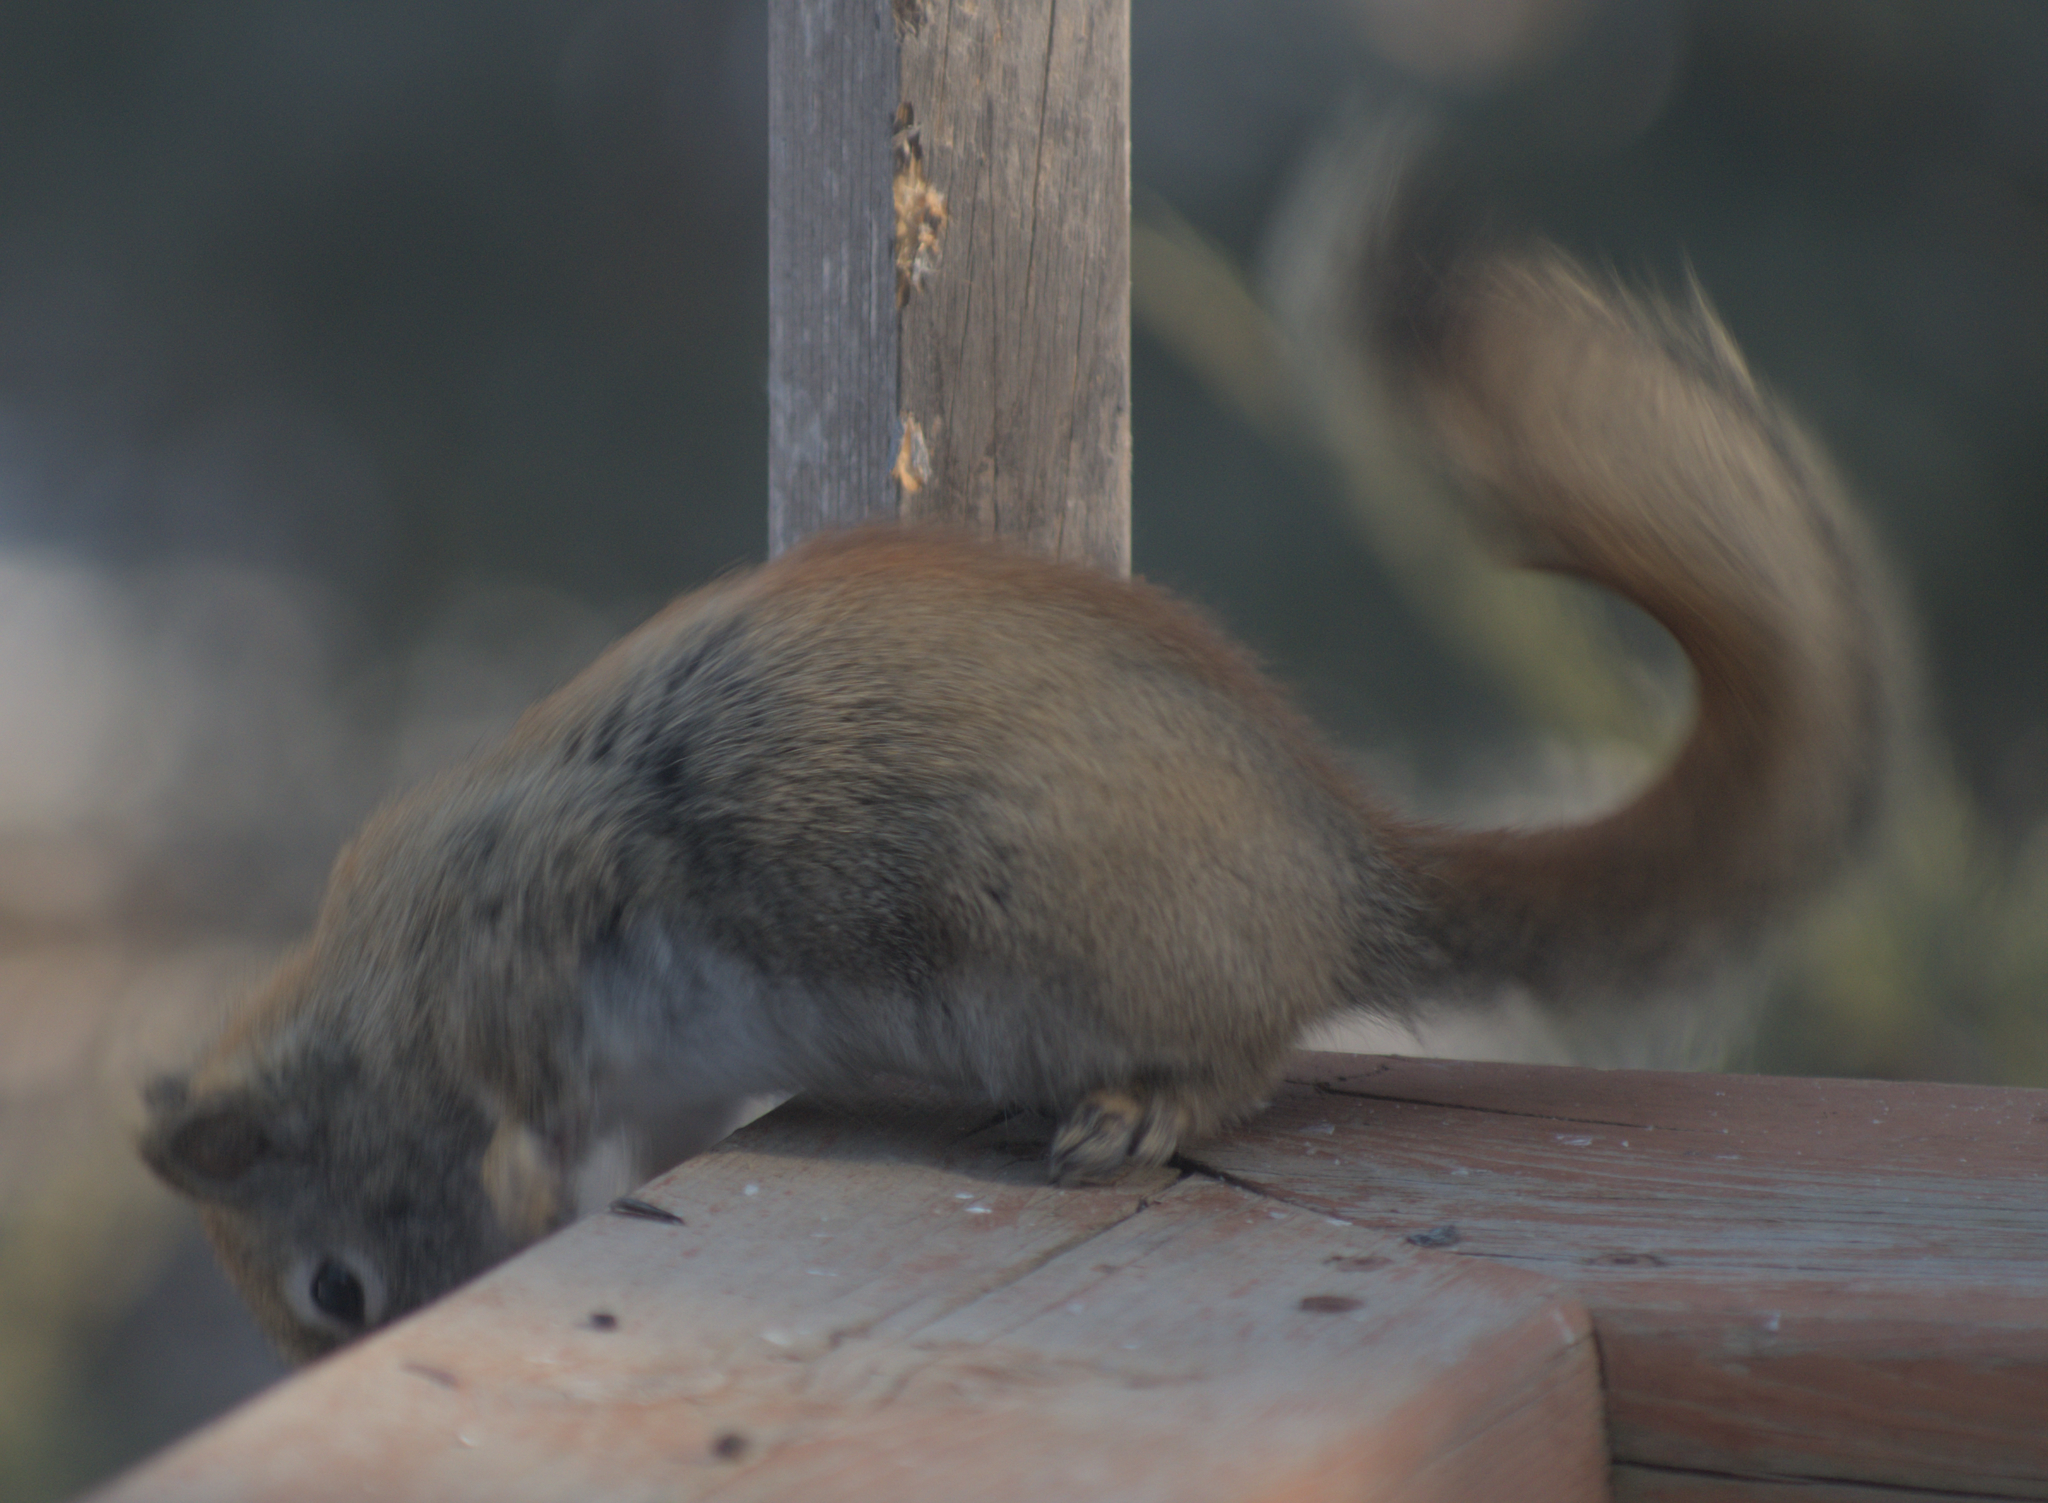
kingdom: Animalia
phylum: Chordata
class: Mammalia
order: Rodentia
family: Sciuridae
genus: Tamiasciurus
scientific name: Tamiasciurus hudsonicus
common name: Red squirrel
